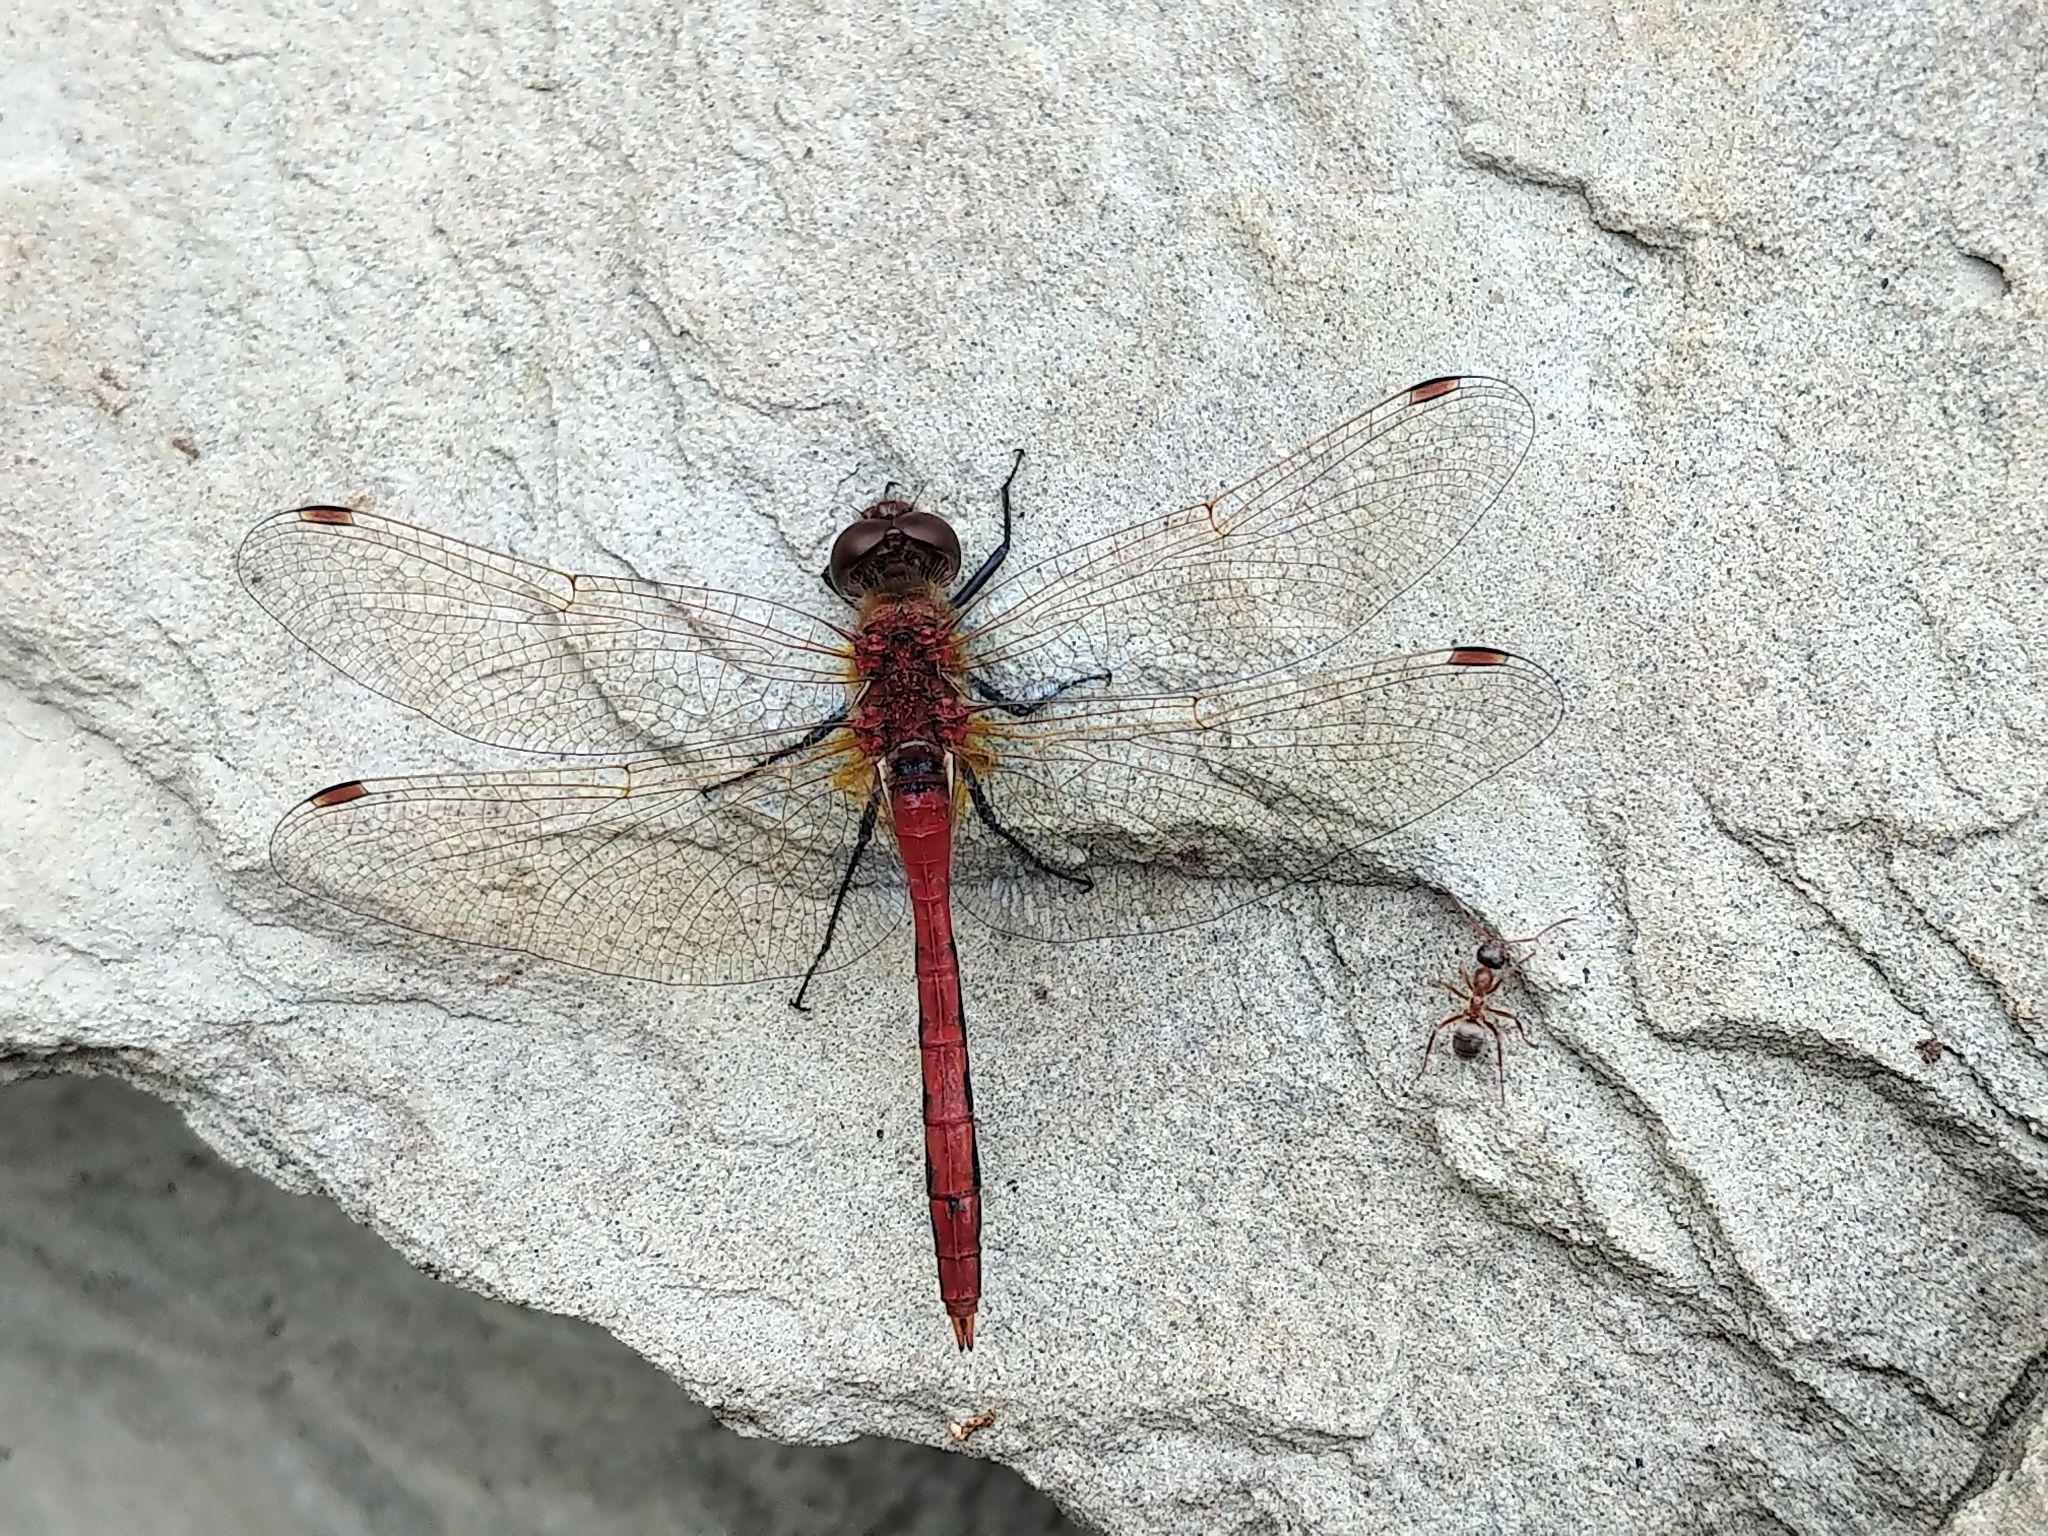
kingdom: Animalia
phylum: Arthropoda
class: Insecta
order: Odonata
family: Libellulidae
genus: Sympetrum
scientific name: Sympetrum internum
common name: Cherry-faced meadowhawk
